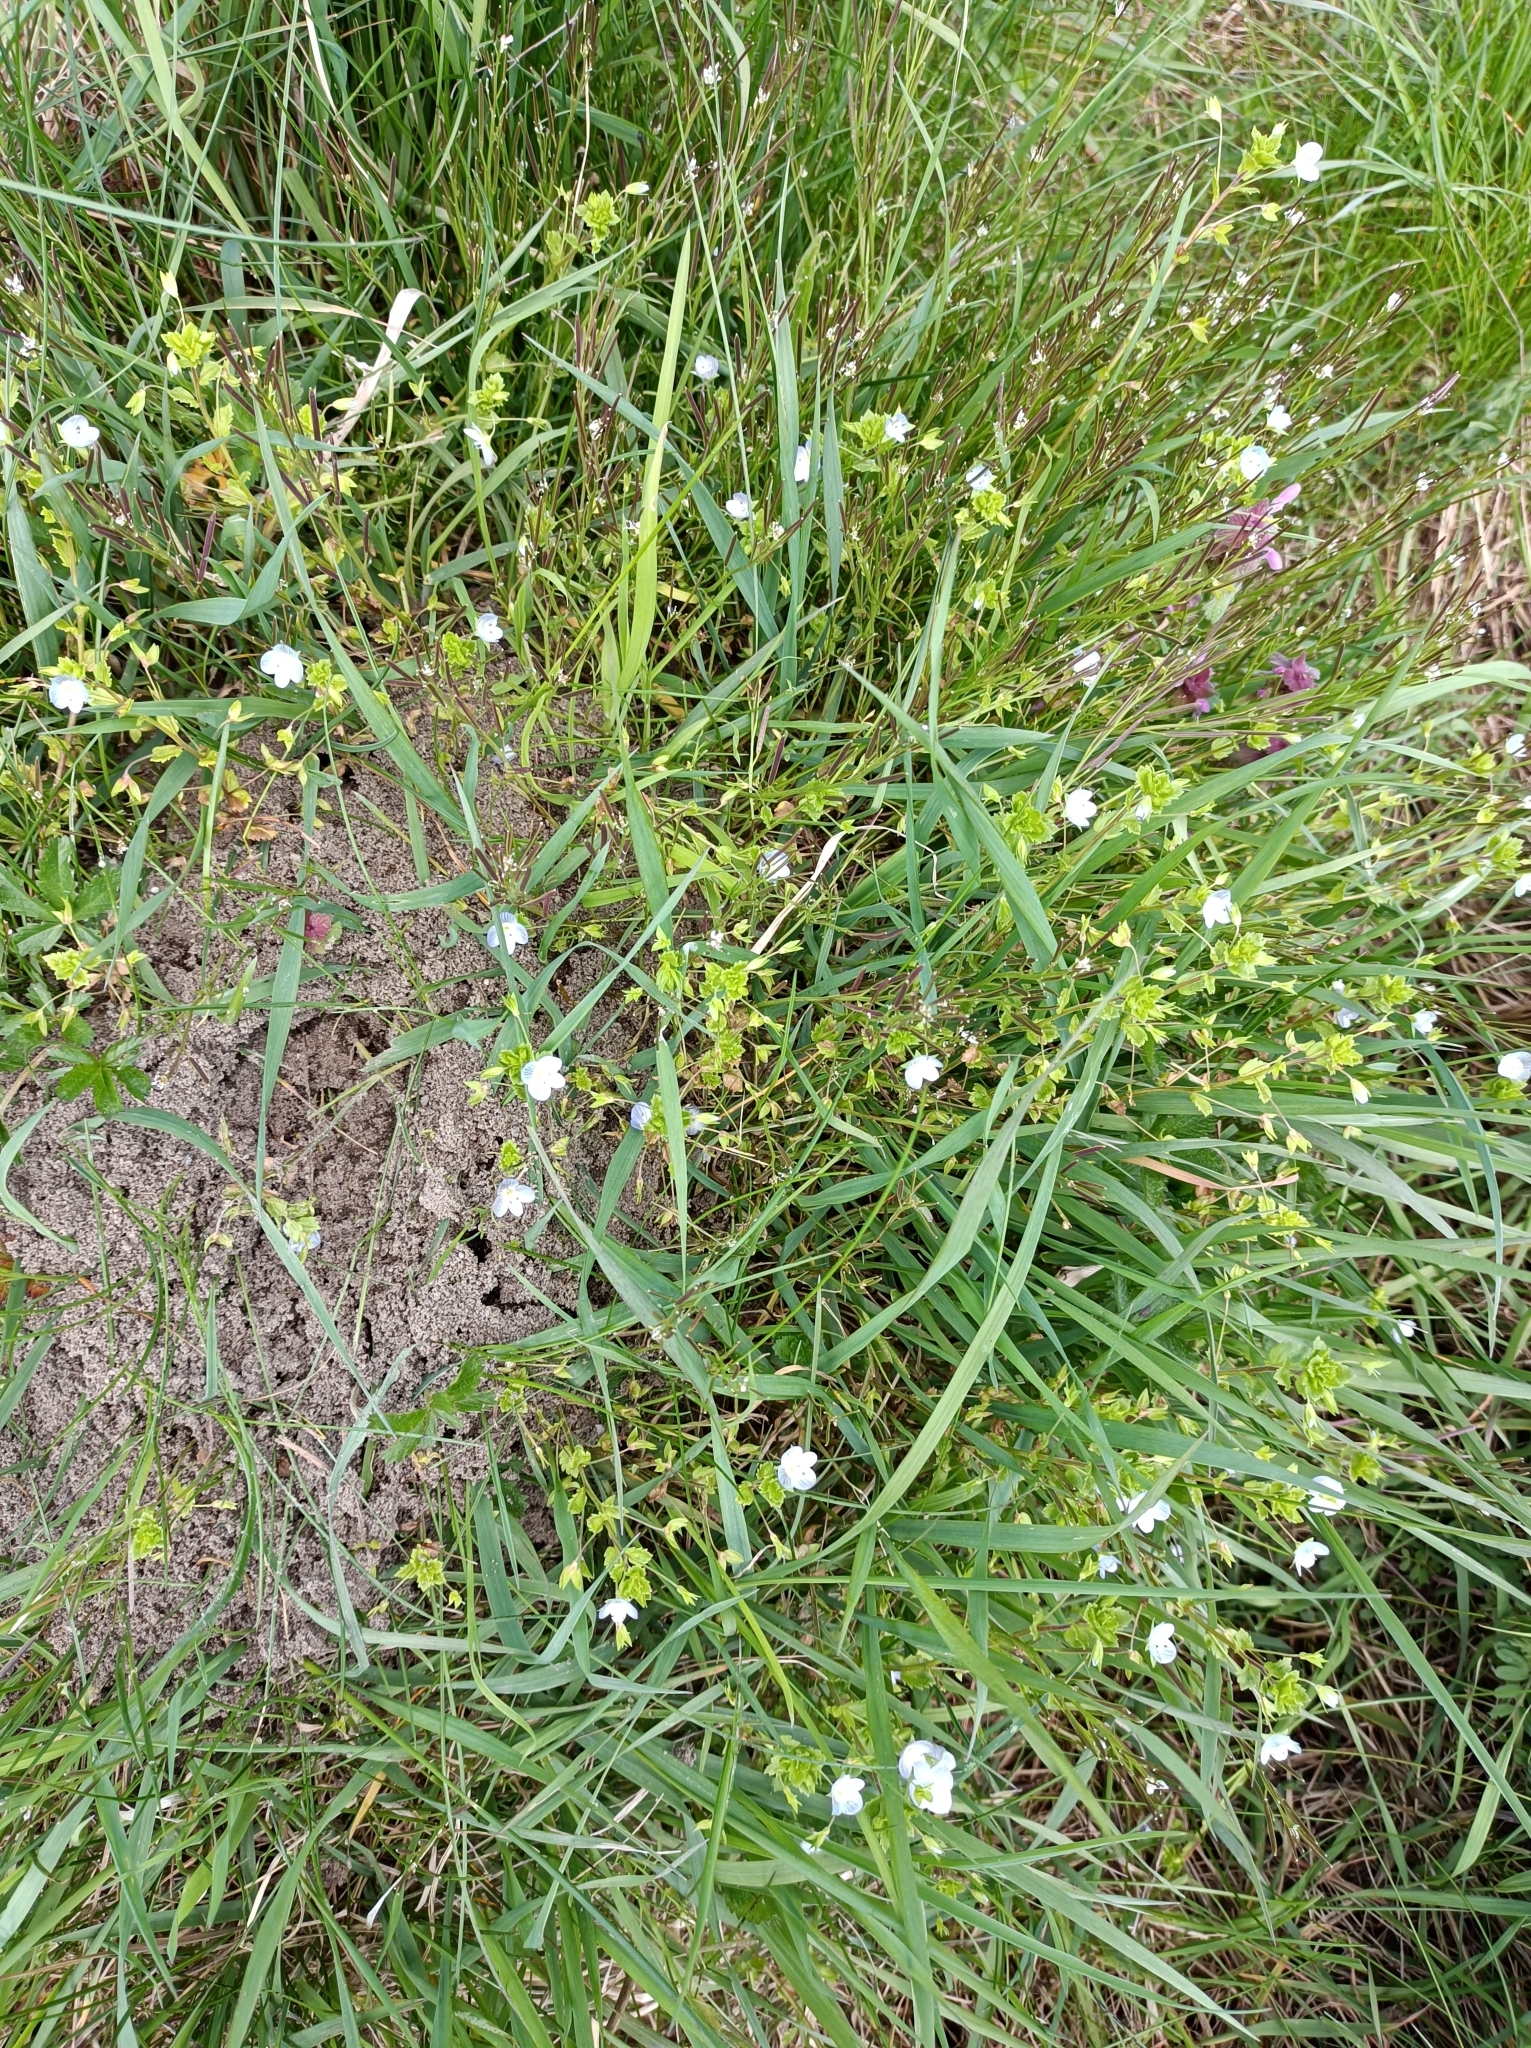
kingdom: Plantae
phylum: Tracheophyta
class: Magnoliopsida
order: Lamiales
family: Plantaginaceae
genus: Veronica
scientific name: Veronica persica
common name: Common field-speedwell
